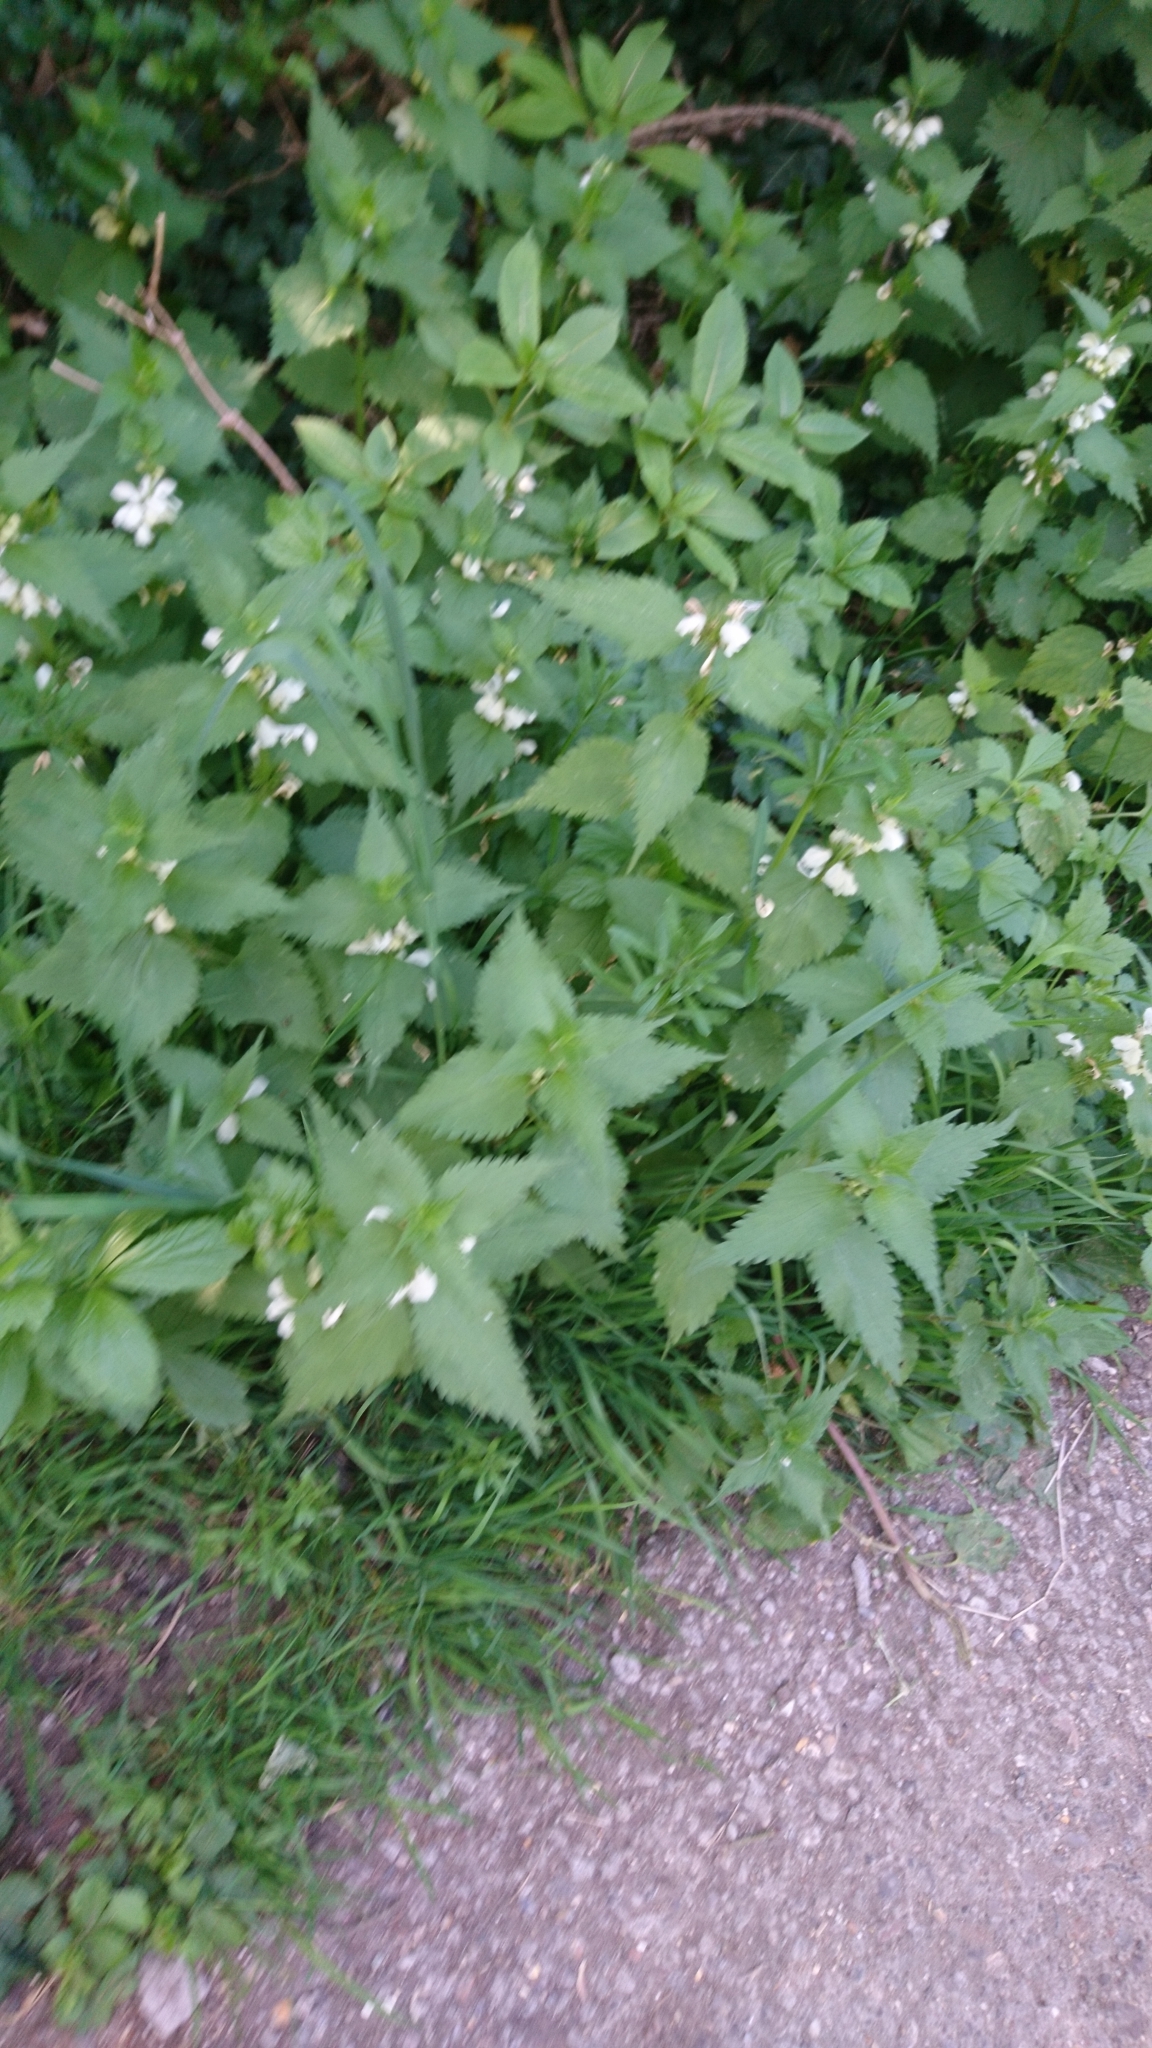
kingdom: Plantae
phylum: Tracheophyta
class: Magnoliopsida
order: Lamiales
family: Lamiaceae
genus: Lamium
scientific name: Lamium album
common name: White dead-nettle
